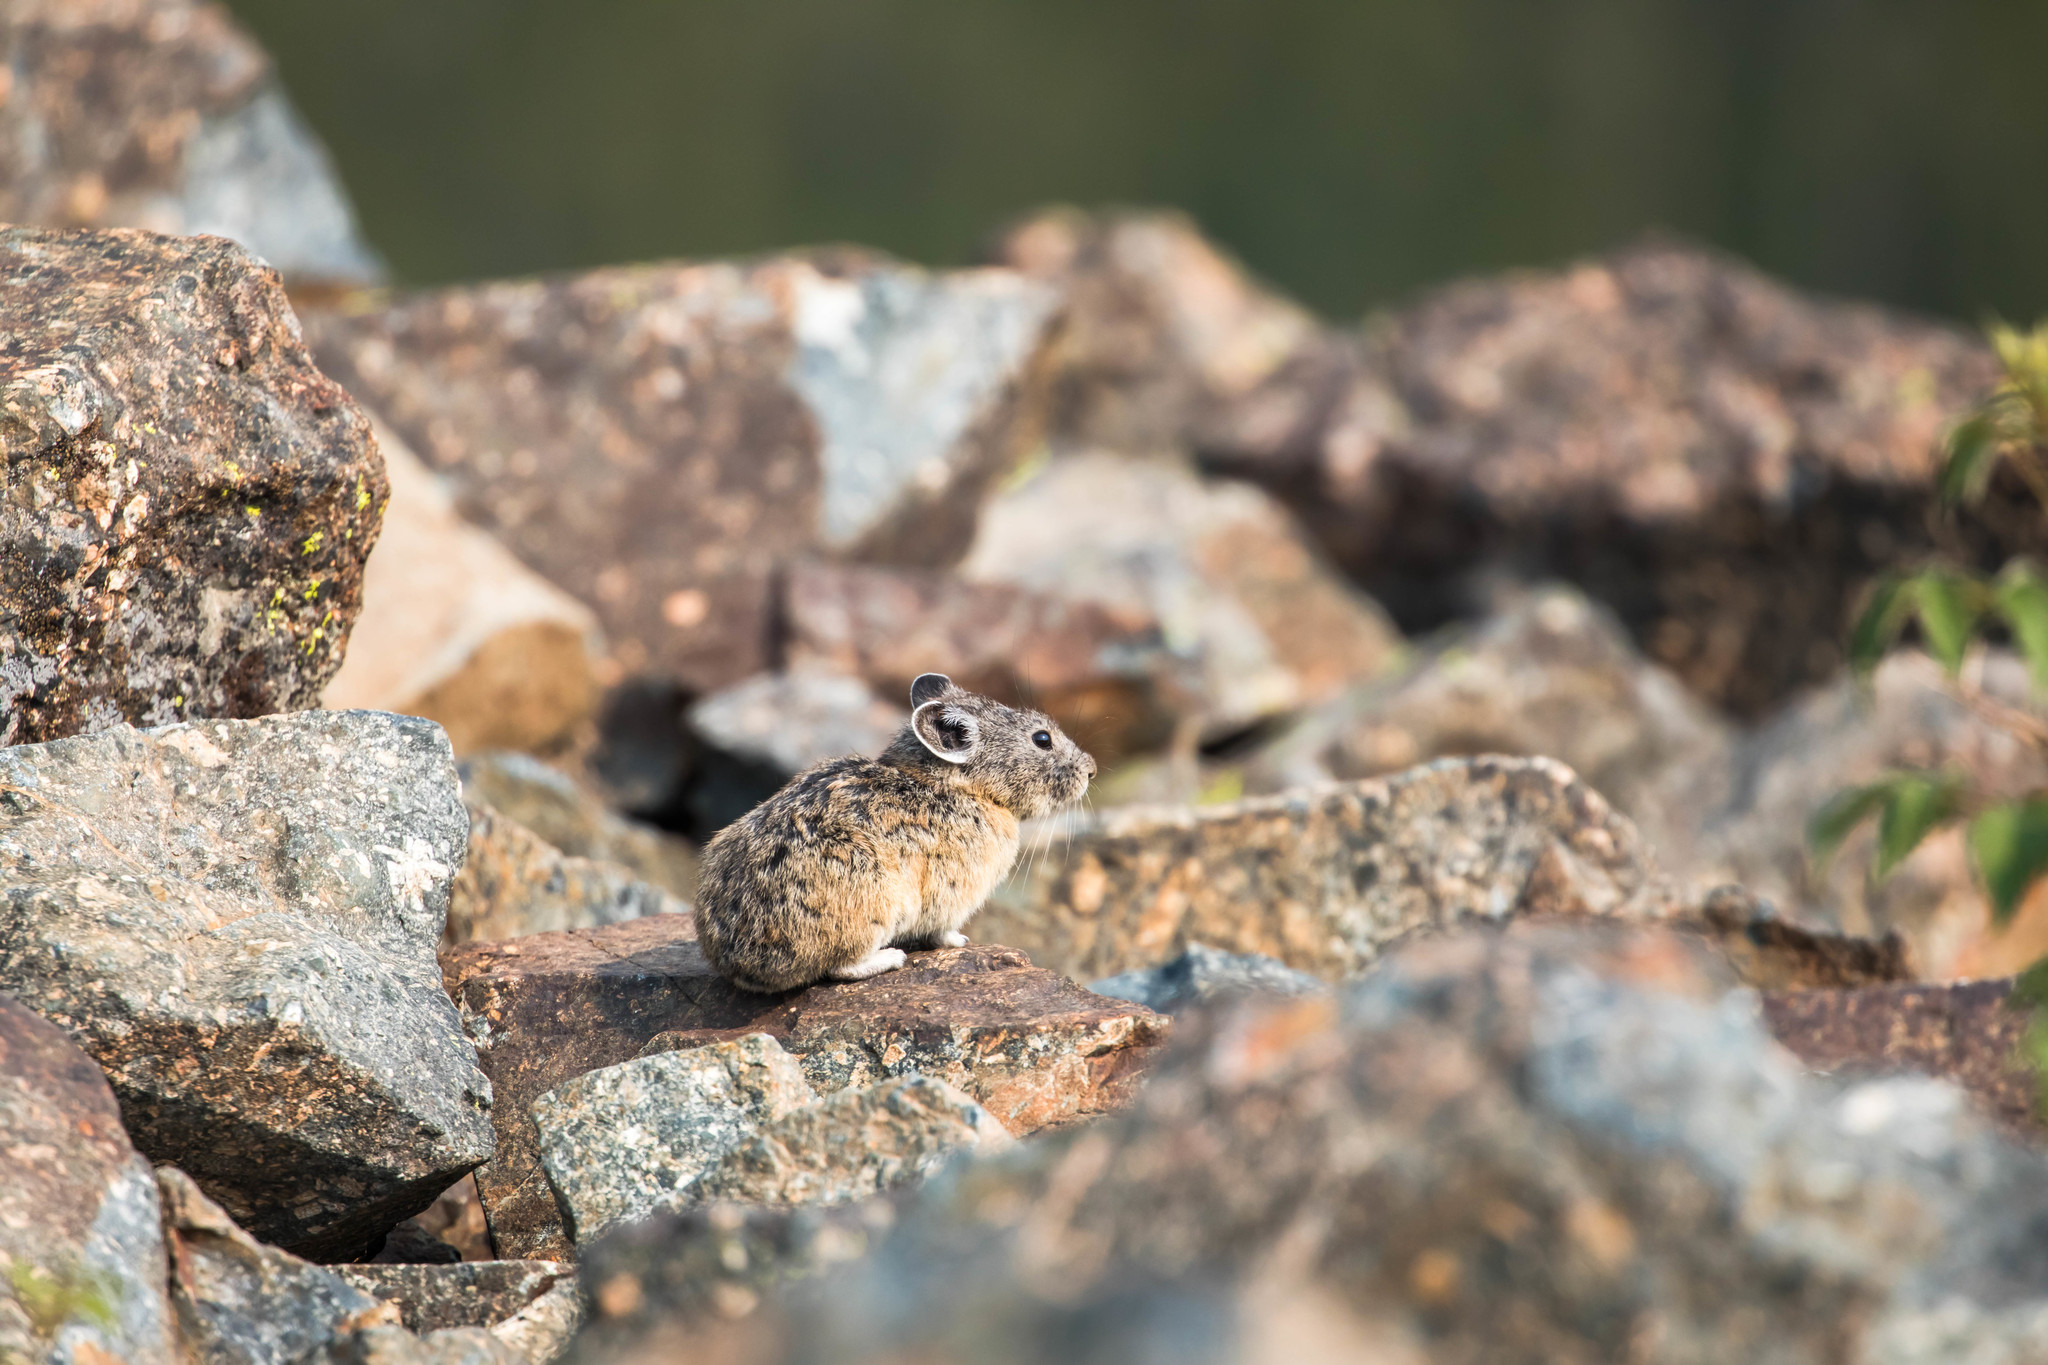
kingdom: Animalia
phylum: Chordata
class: Mammalia
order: Lagomorpha
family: Ochotonidae
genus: Ochotona
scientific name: Ochotona princeps
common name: American pika
